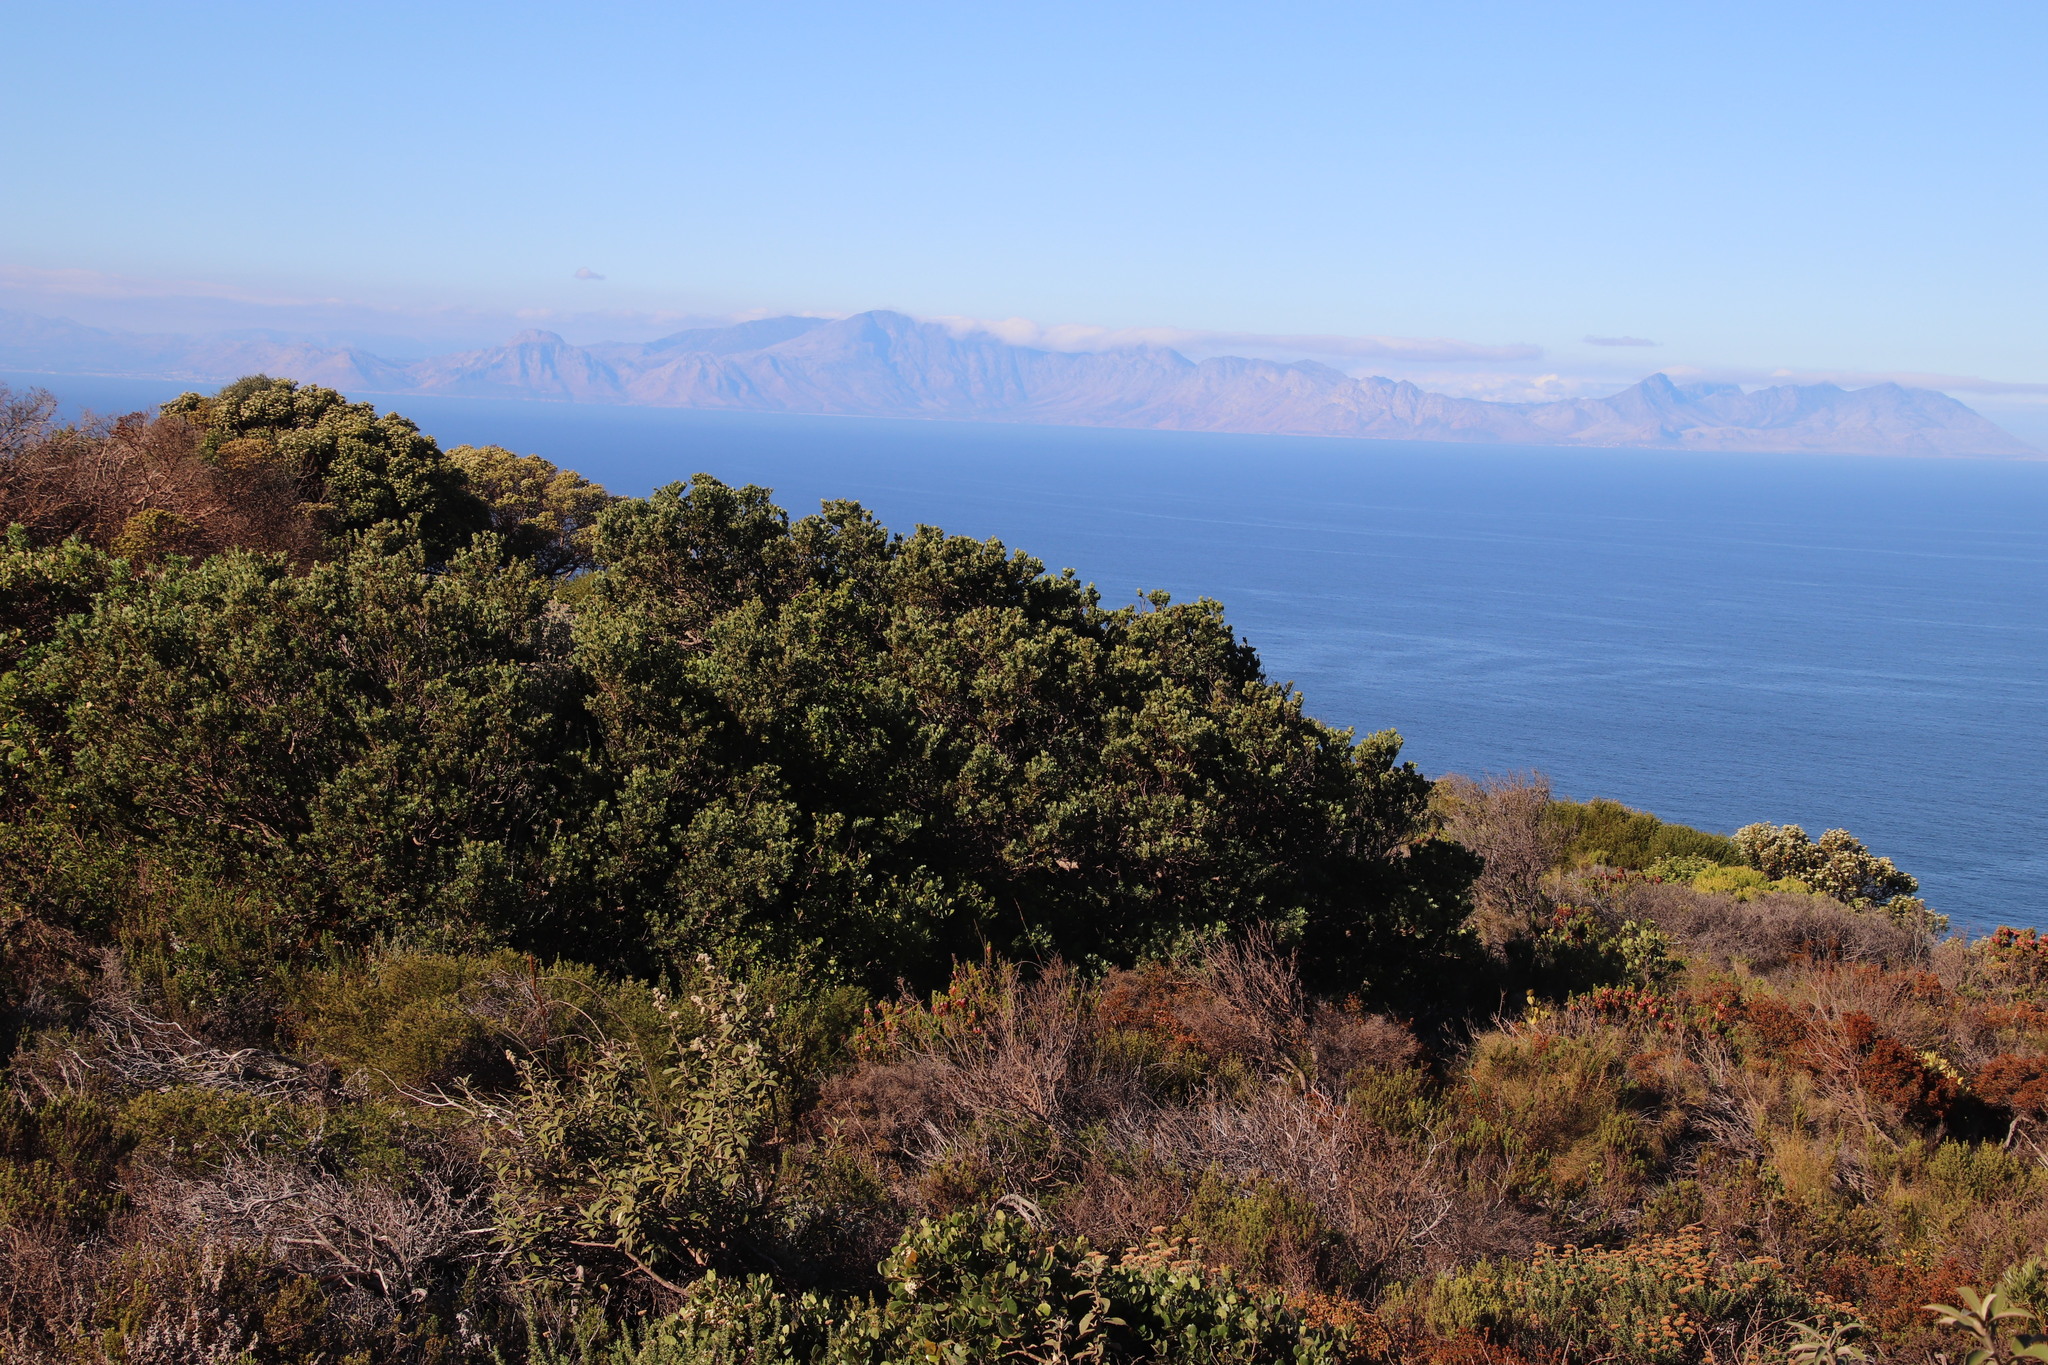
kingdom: Plantae
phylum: Tracheophyta
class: Magnoliopsida
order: Santalales
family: Santalaceae
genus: Osyris
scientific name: Osyris compressa
